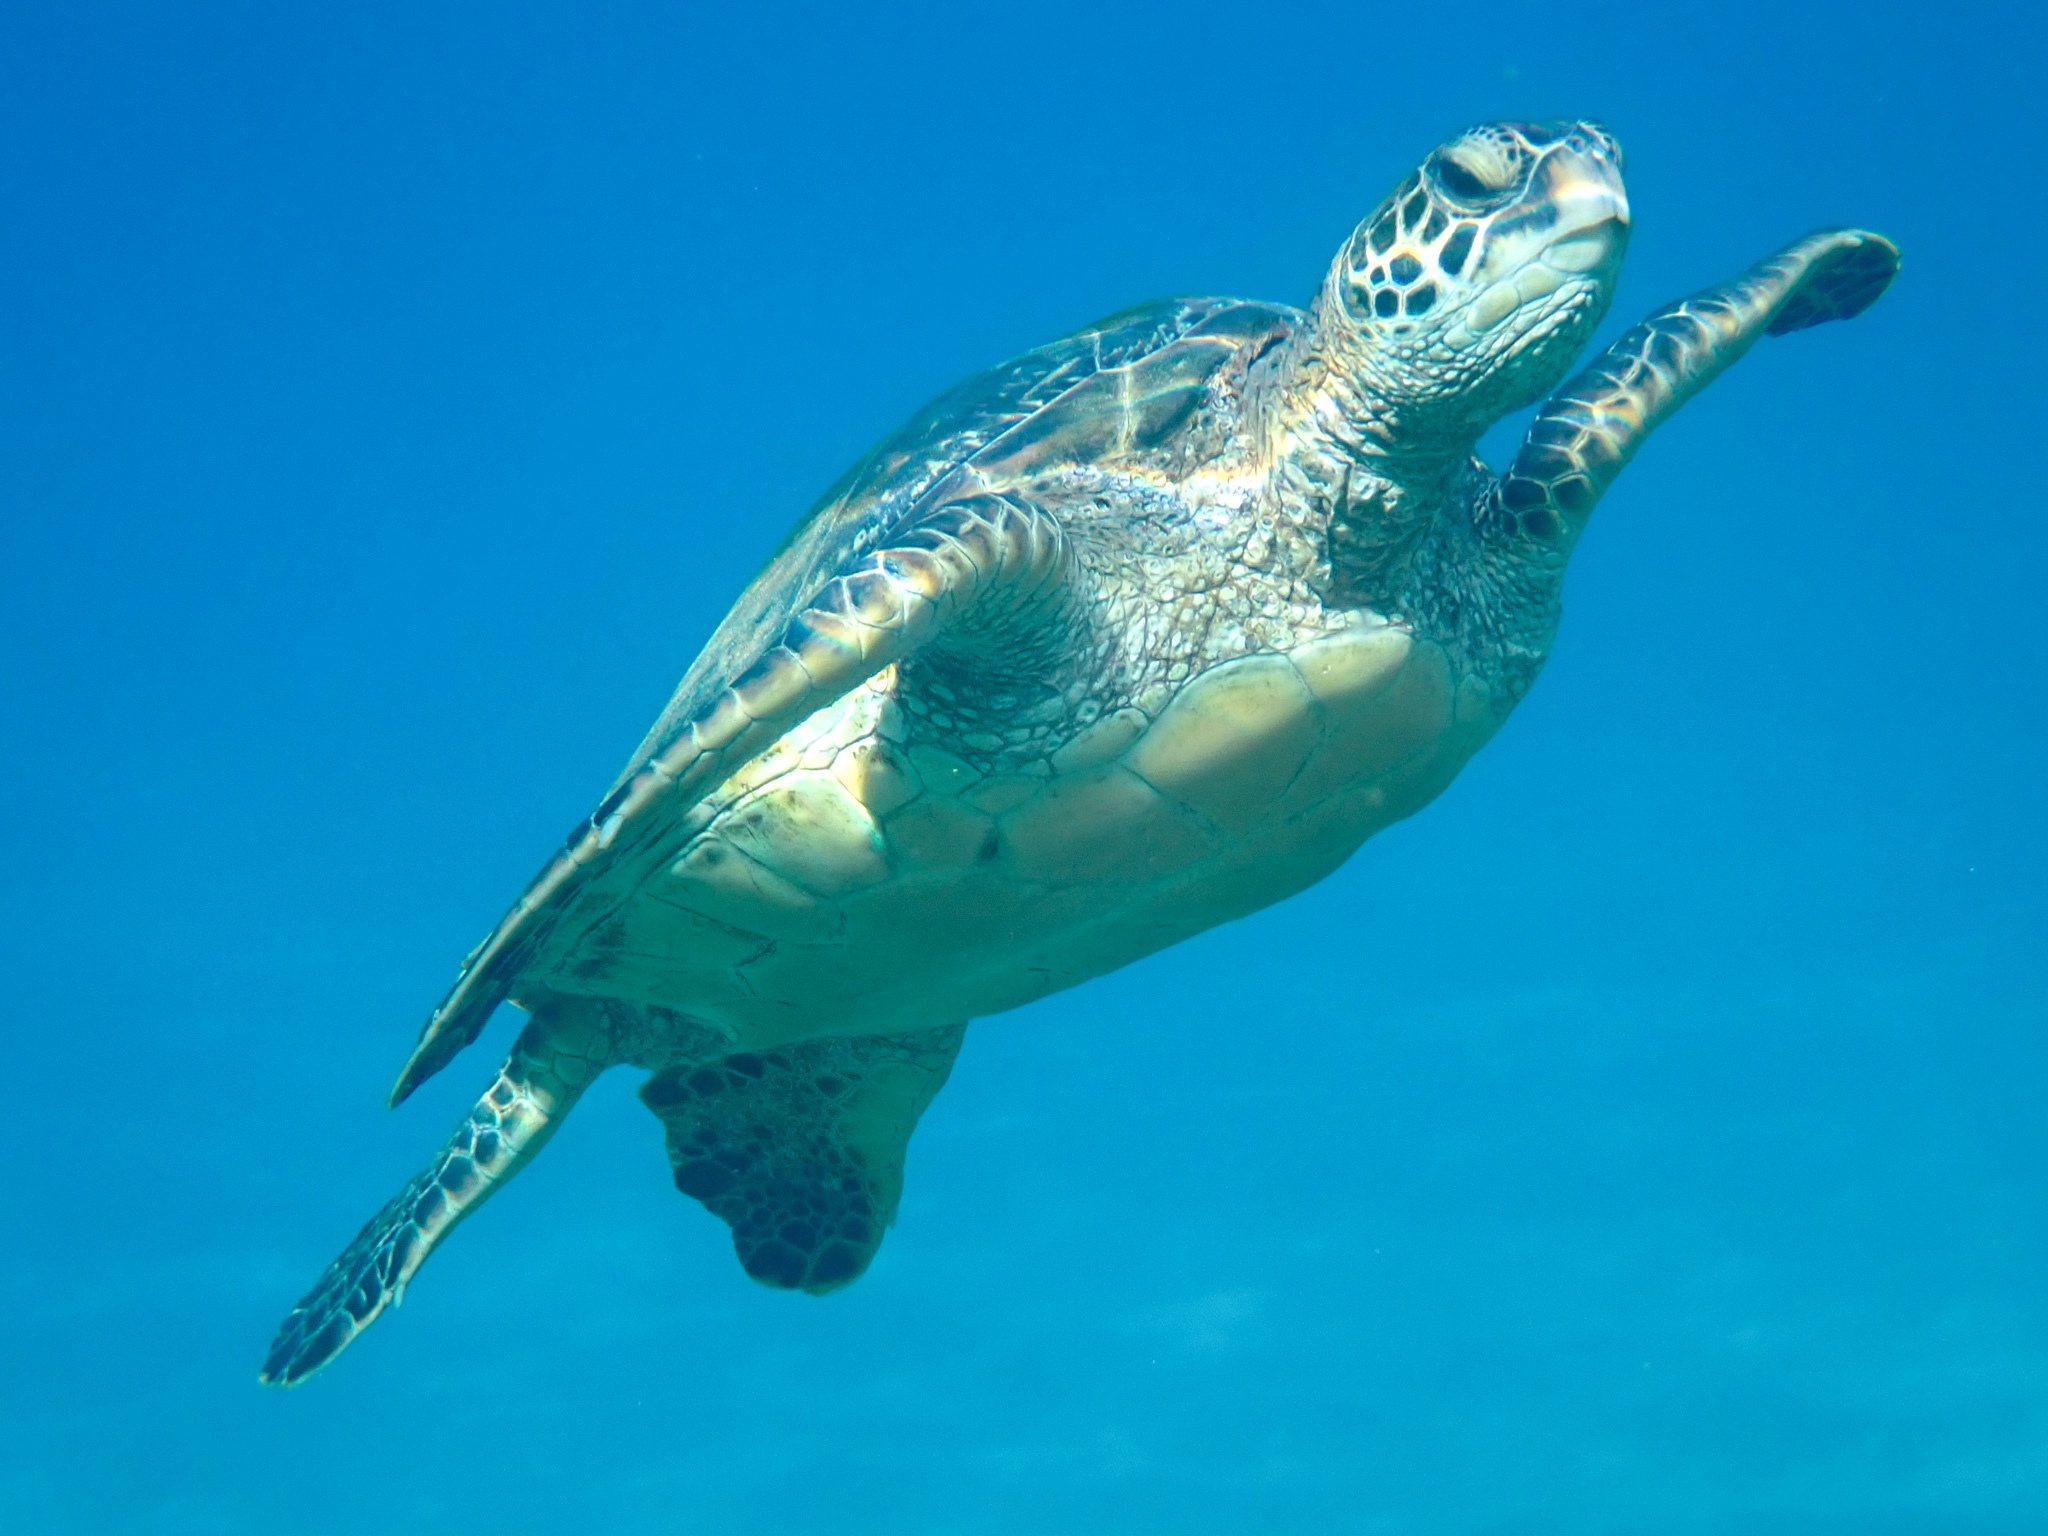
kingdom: Animalia
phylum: Chordata
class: Testudines
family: Cheloniidae
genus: Chelonia
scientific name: Chelonia mydas
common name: Green turtle
